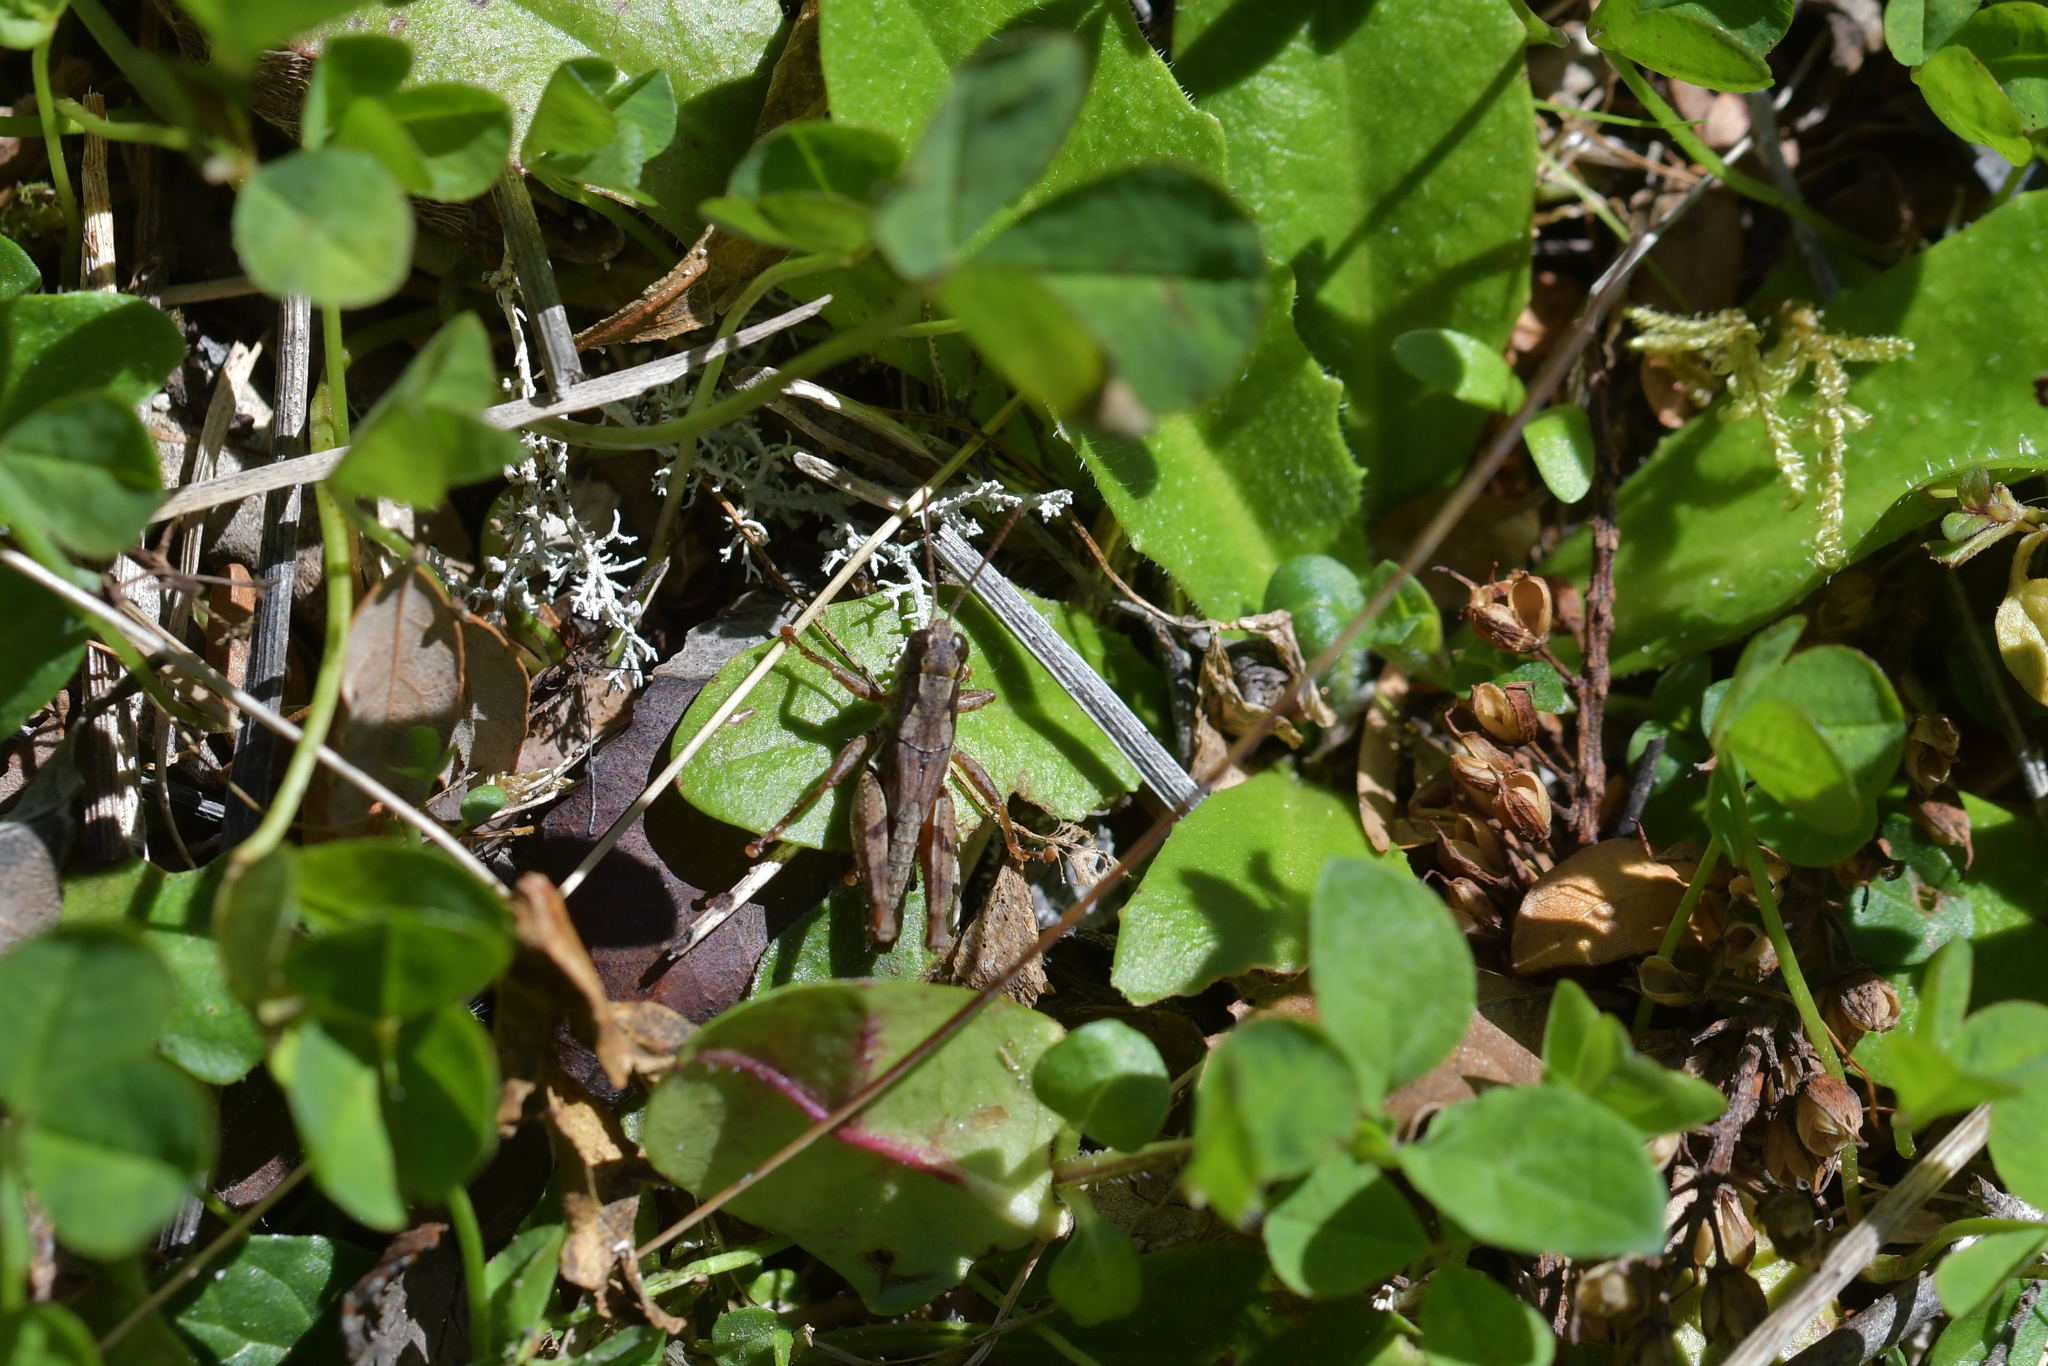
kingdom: Animalia
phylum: Arthropoda
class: Insecta
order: Orthoptera
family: Acrididae
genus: Phaulacridium
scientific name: Phaulacridium marginale
